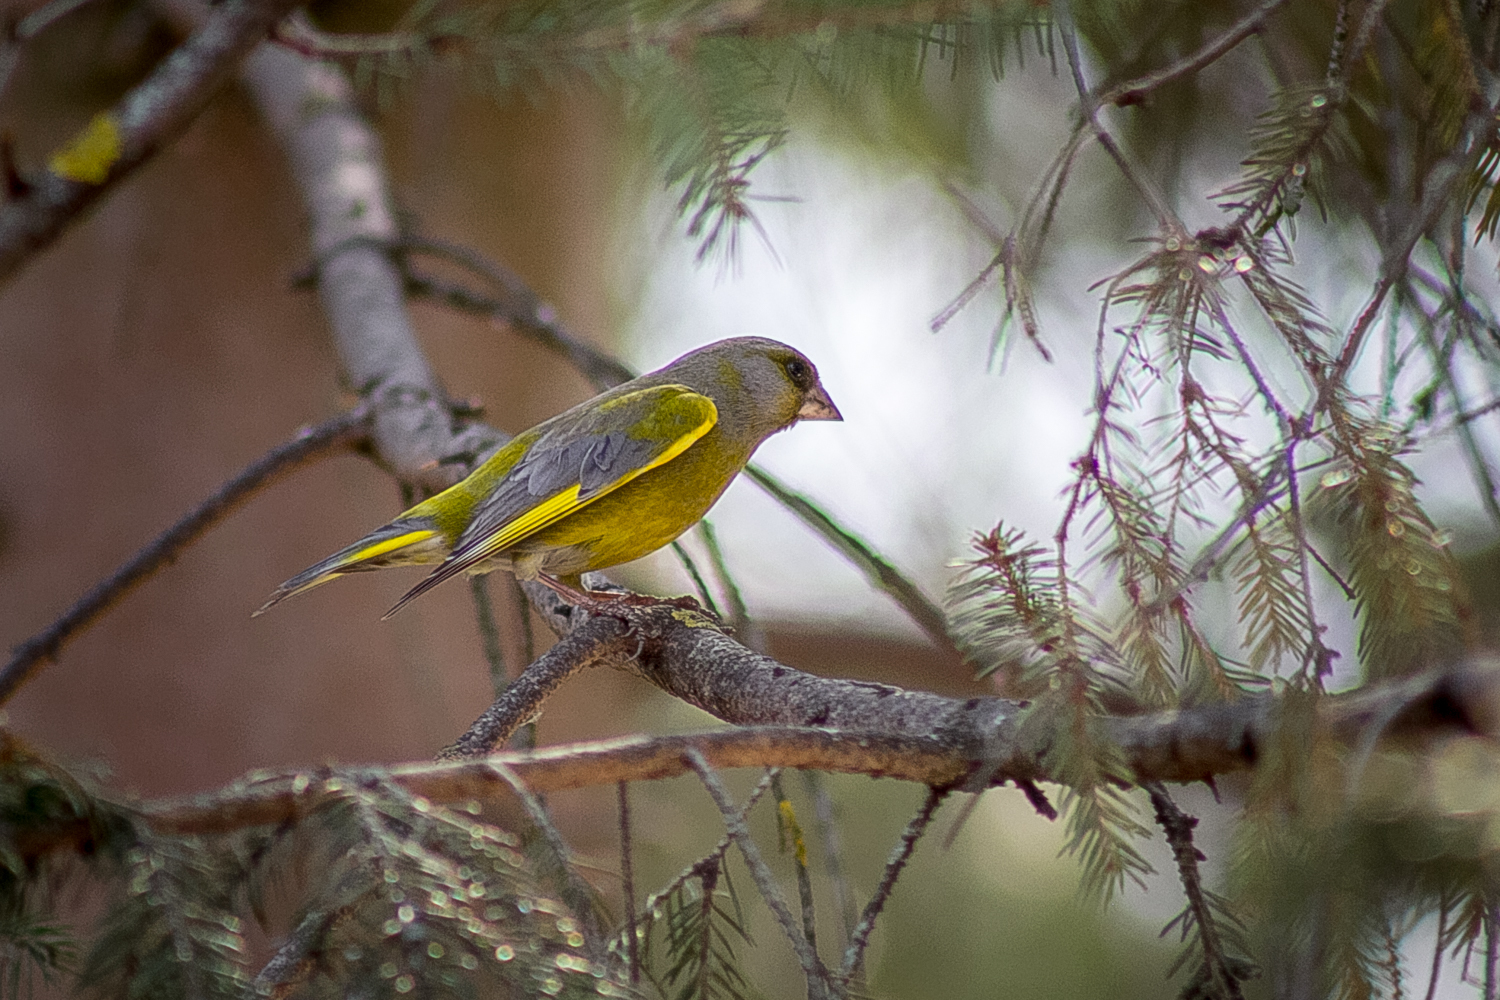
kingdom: Plantae
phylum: Tracheophyta
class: Liliopsida
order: Poales
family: Poaceae
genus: Chloris
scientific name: Chloris chloris
